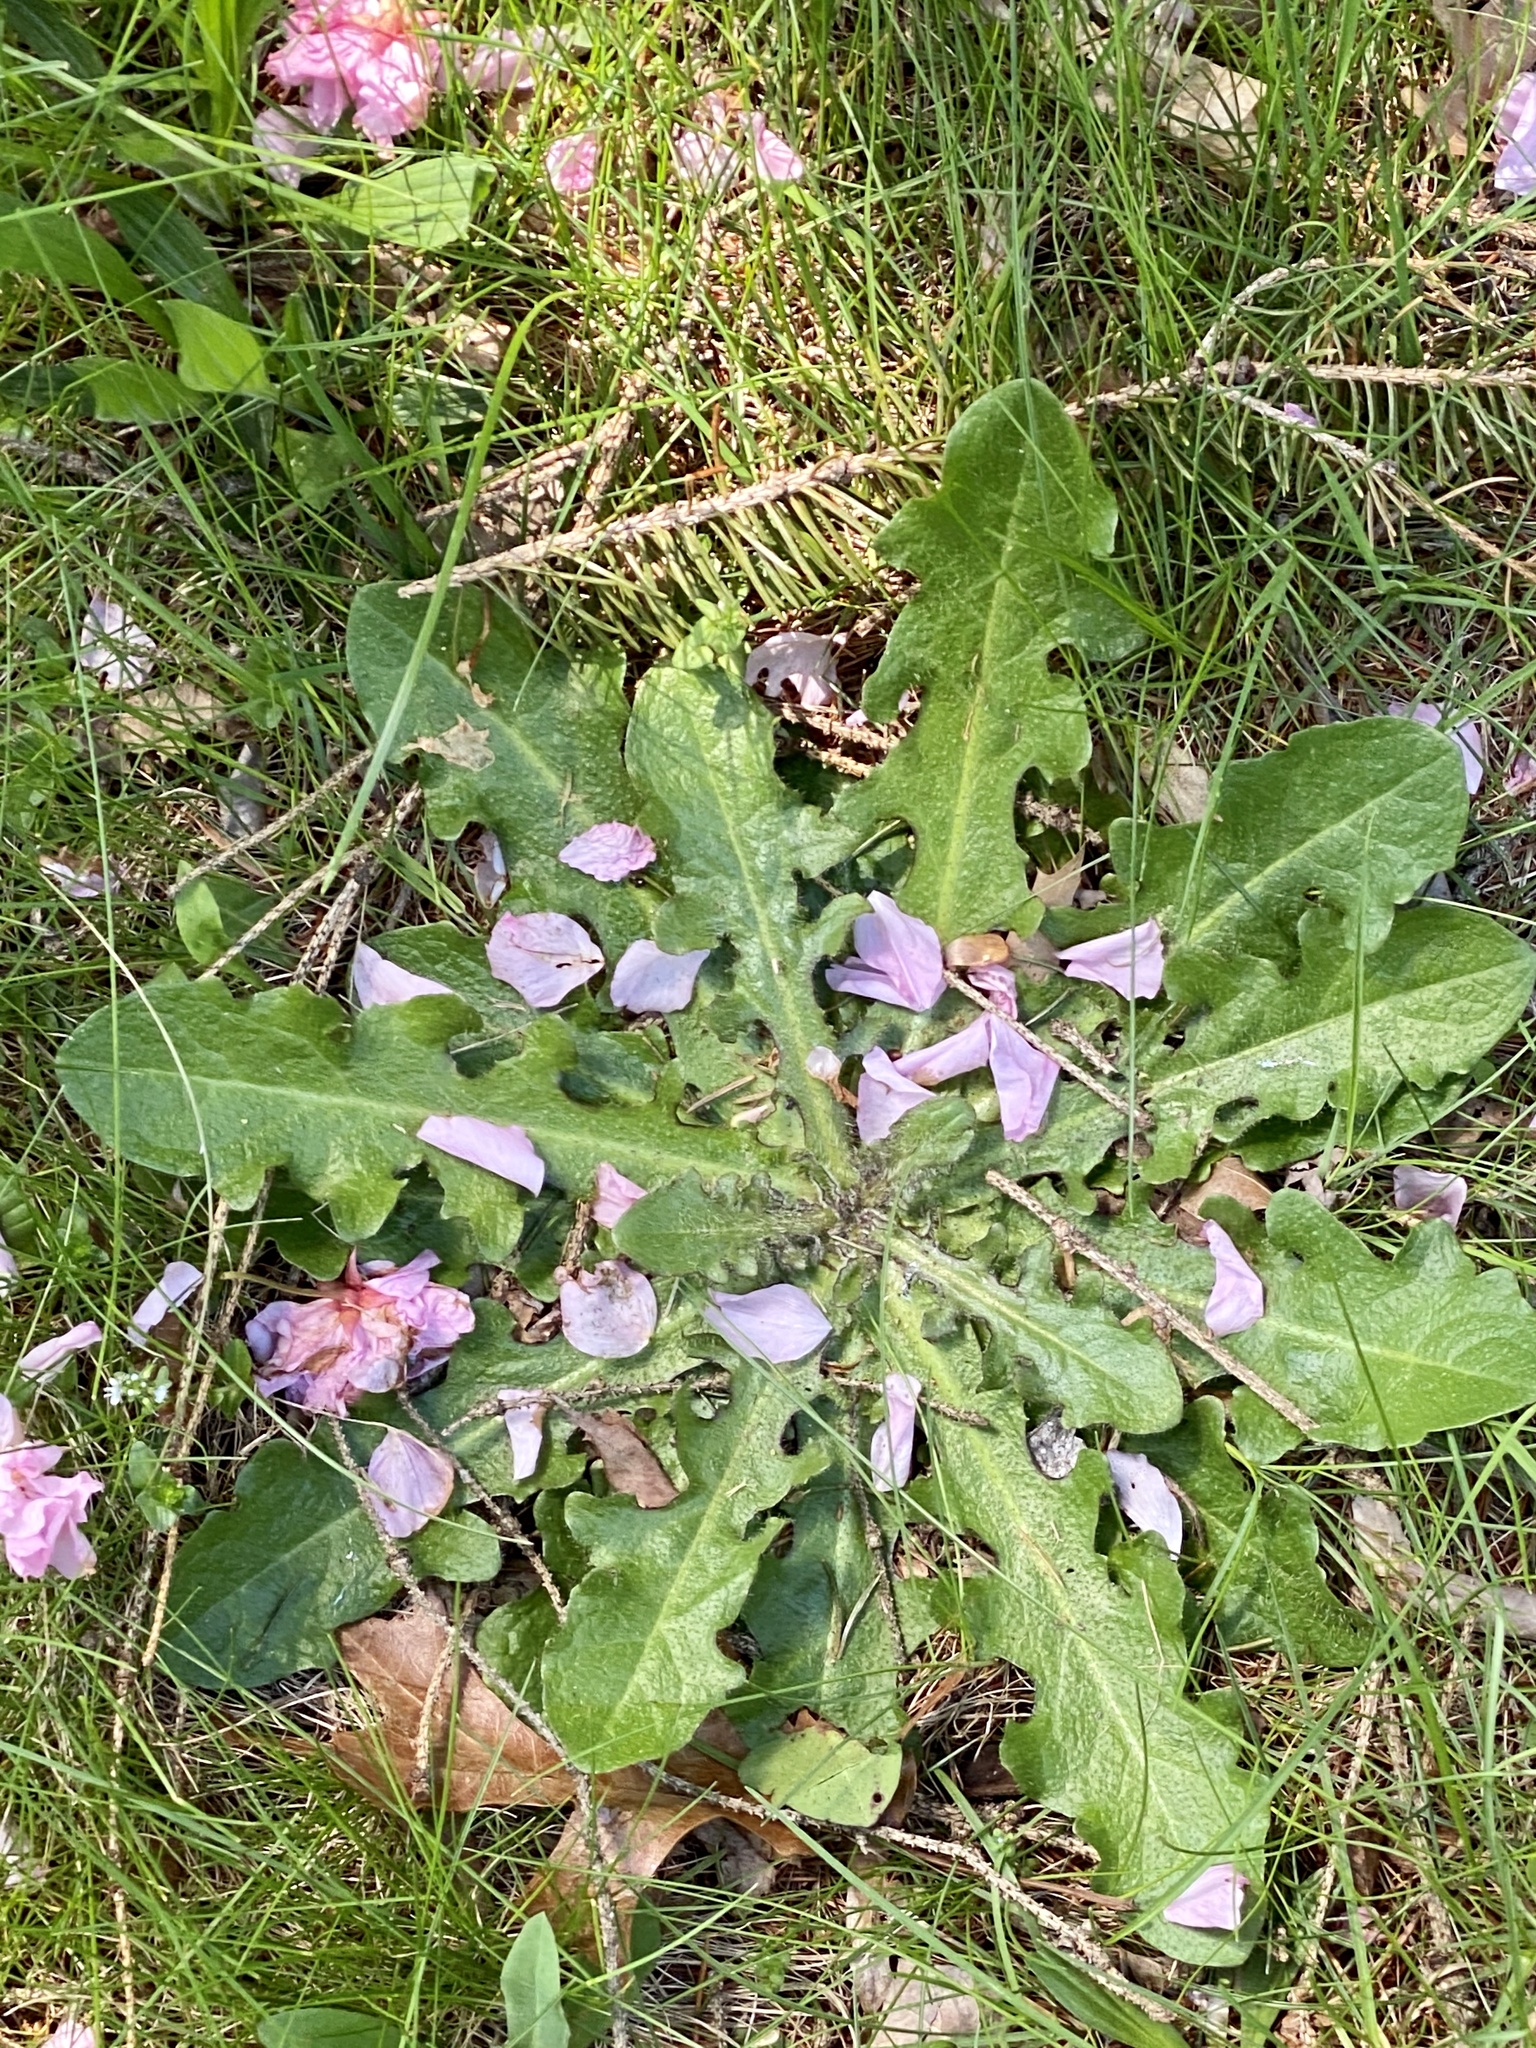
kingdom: Plantae
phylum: Tracheophyta
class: Magnoliopsida
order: Asterales
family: Asteraceae
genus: Hypochaeris
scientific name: Hypochaeris radicata
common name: Flatweed
